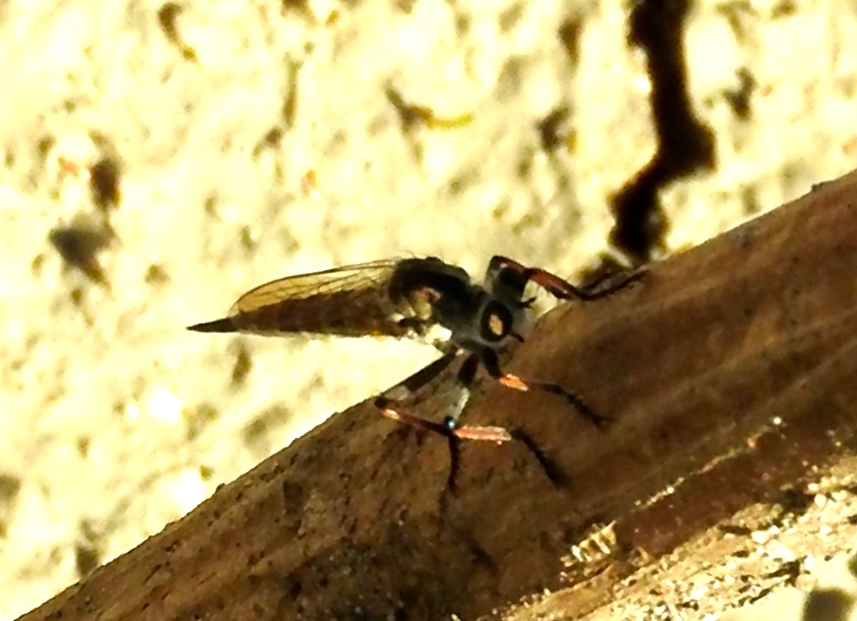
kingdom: Animalia
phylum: Arthropoda
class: Insecta
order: Diptera
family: Asilidae
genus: Efferia
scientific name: Efferia albibarbis
